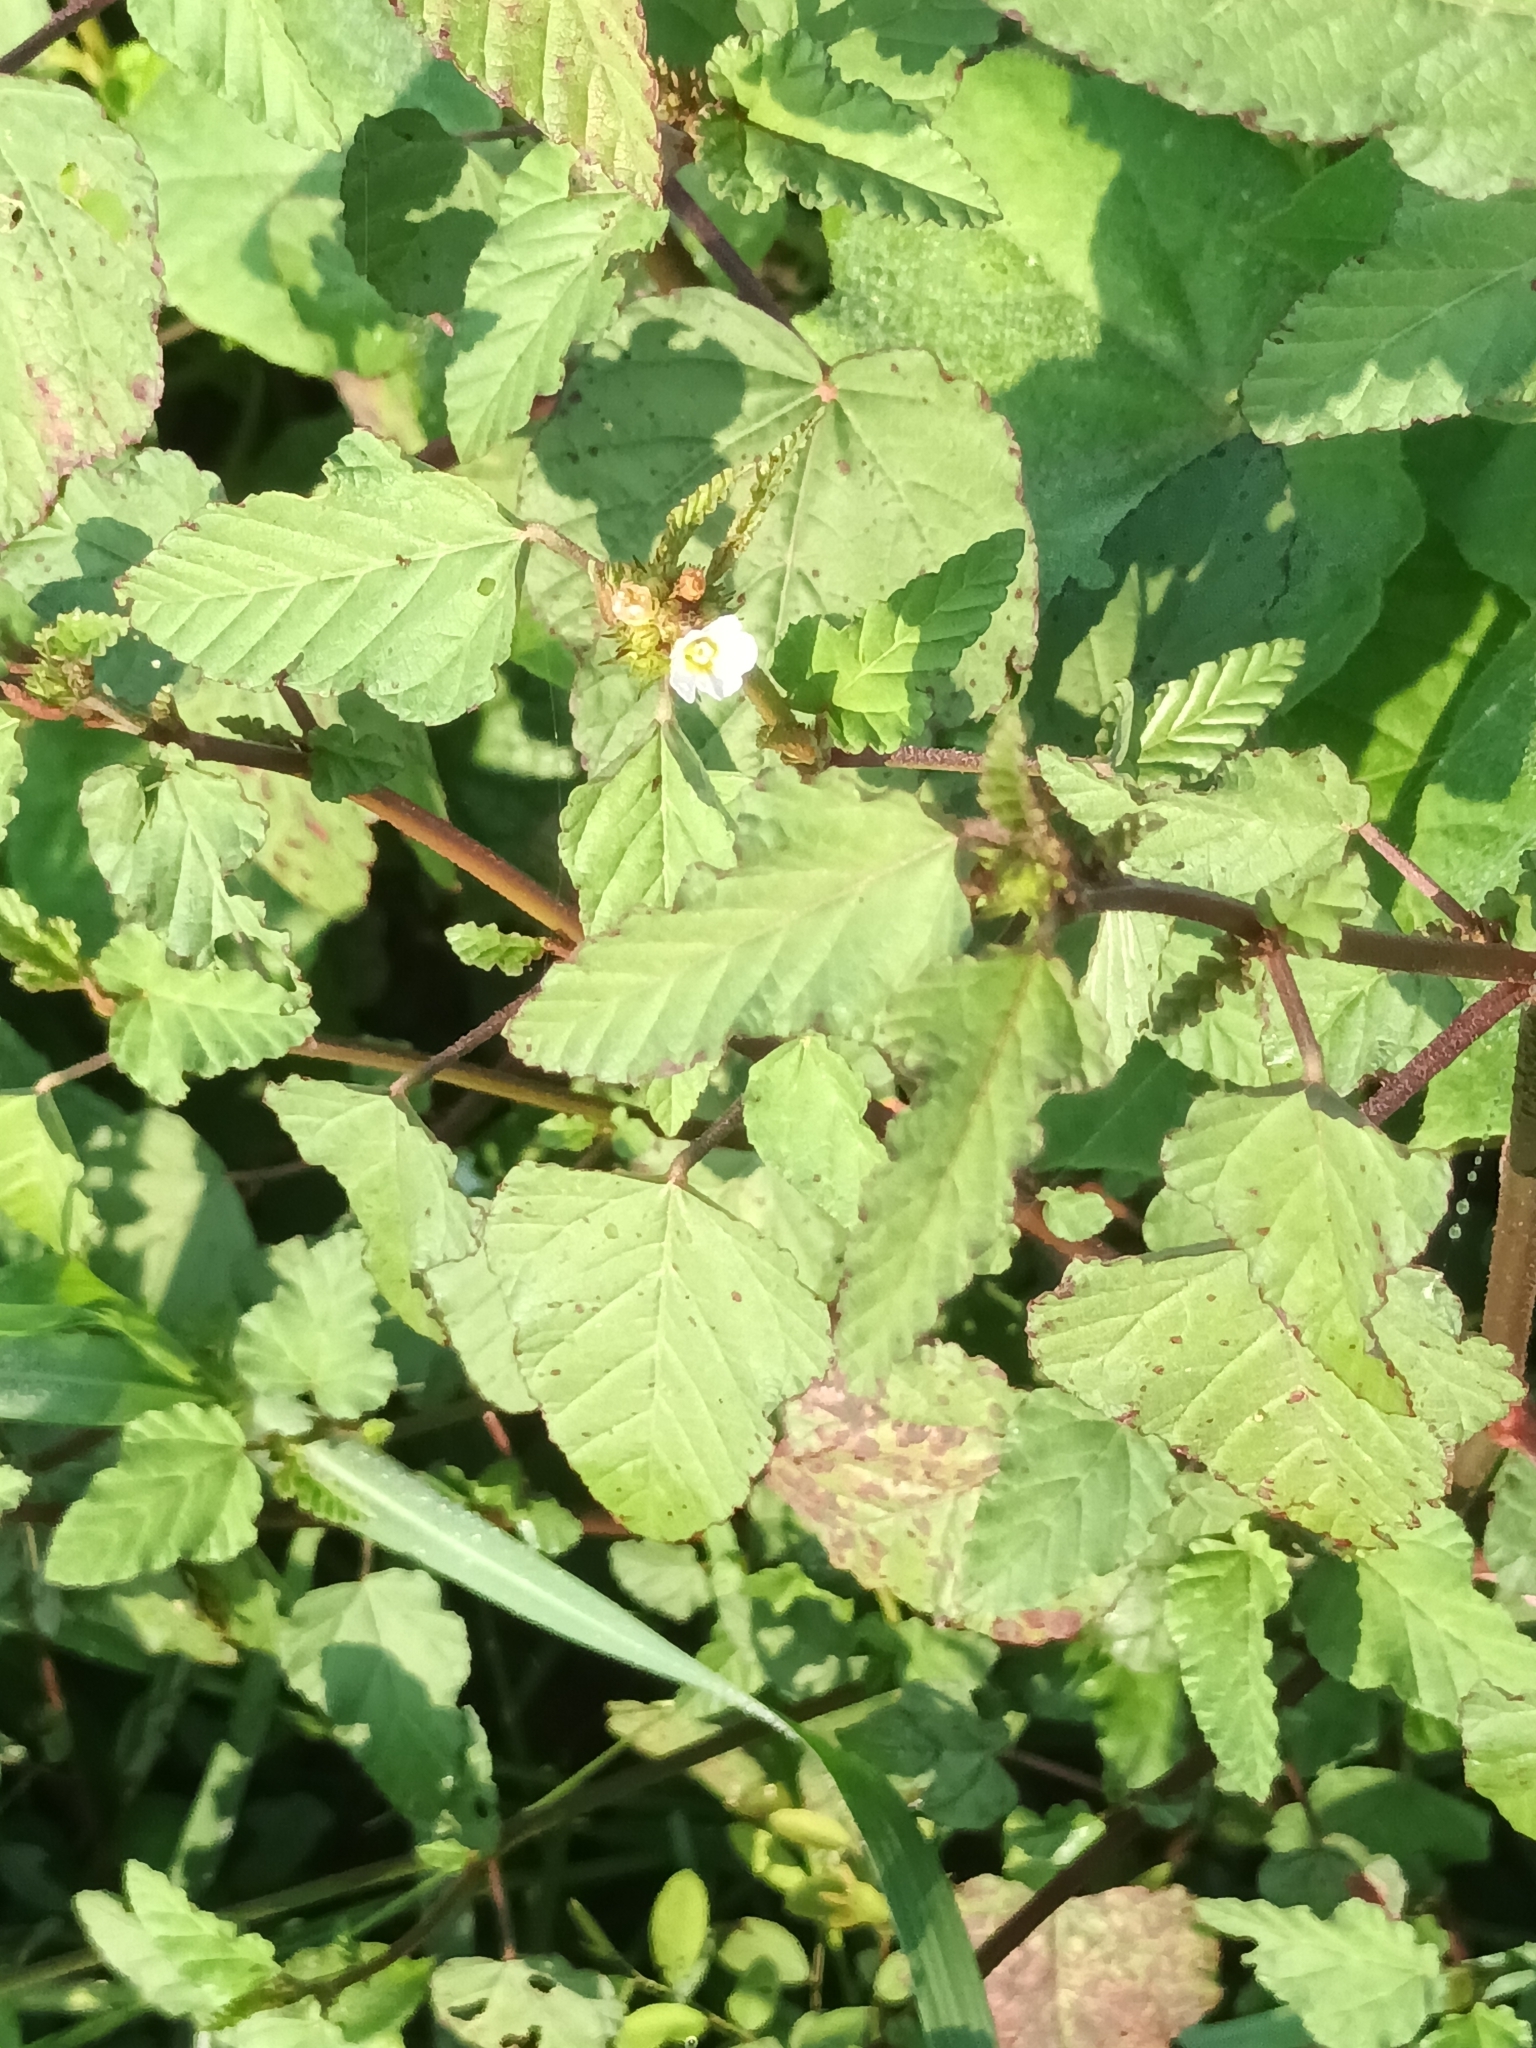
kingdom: Plantae
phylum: Tracheophyta
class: Magnoliopsida
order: Malvales
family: Malvaceae
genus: Melochia
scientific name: Melochia corchorifolia
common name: Chocolateweed
